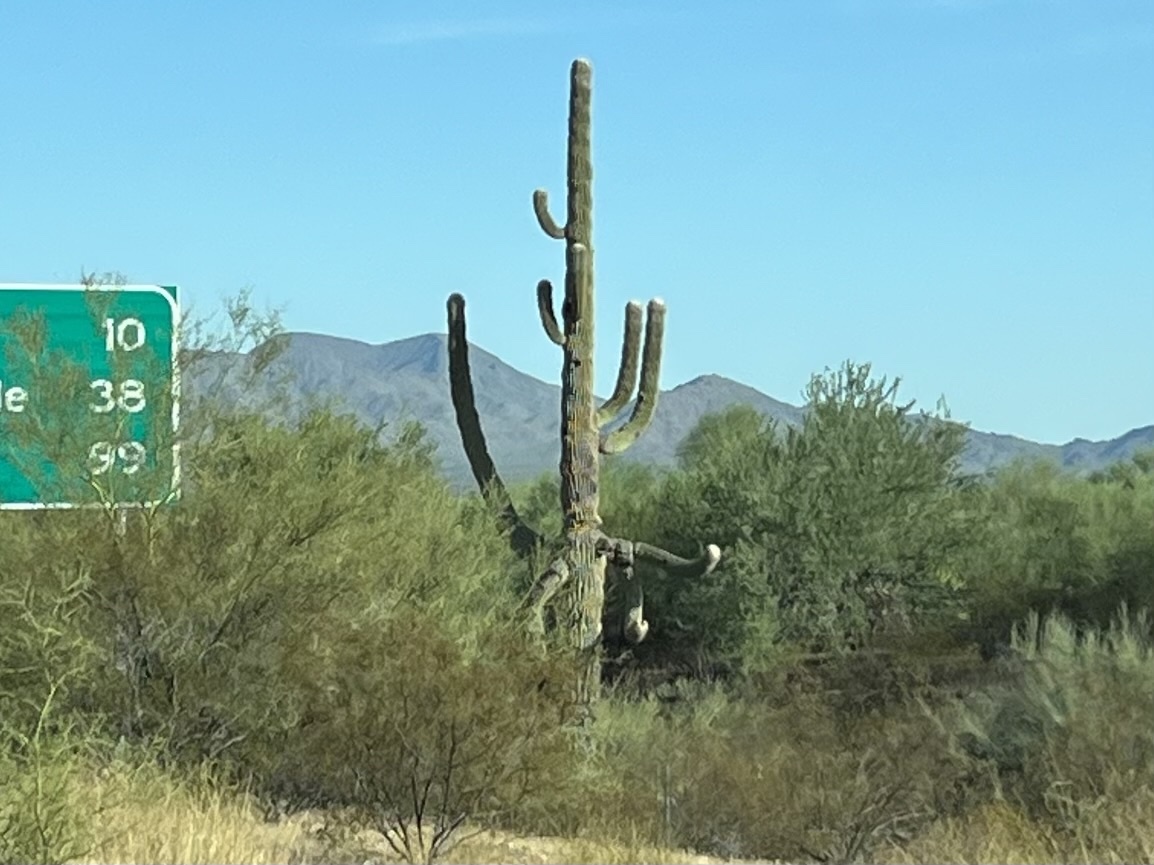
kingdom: Plantae
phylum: Tracheophyta
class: Magnoliopsida
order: Caryophyllales
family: Cactaceae
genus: Carnegiea
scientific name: Carnegiea gigantea
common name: Saguaro
